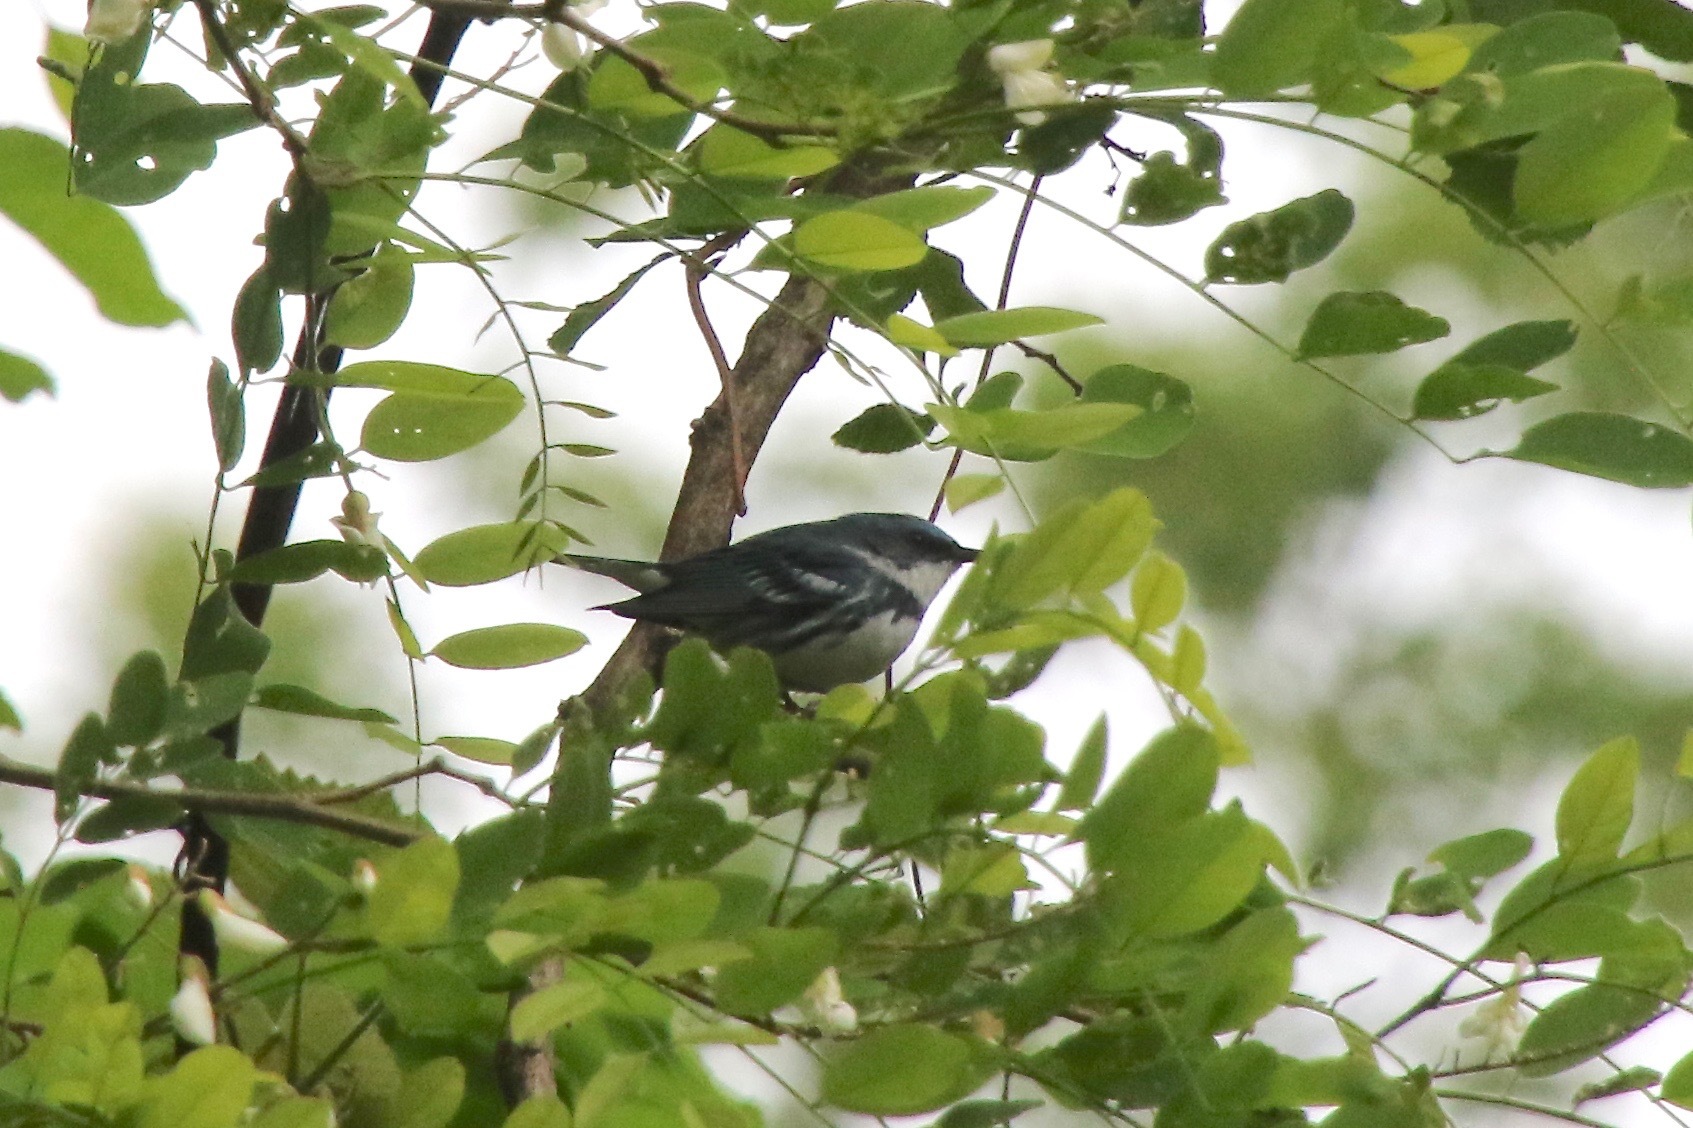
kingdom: Animalia
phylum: Chordata
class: Aves
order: Passeriformes
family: Parulidae
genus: Setophaga
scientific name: Setophaga cerulea
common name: Cerulean warbler
